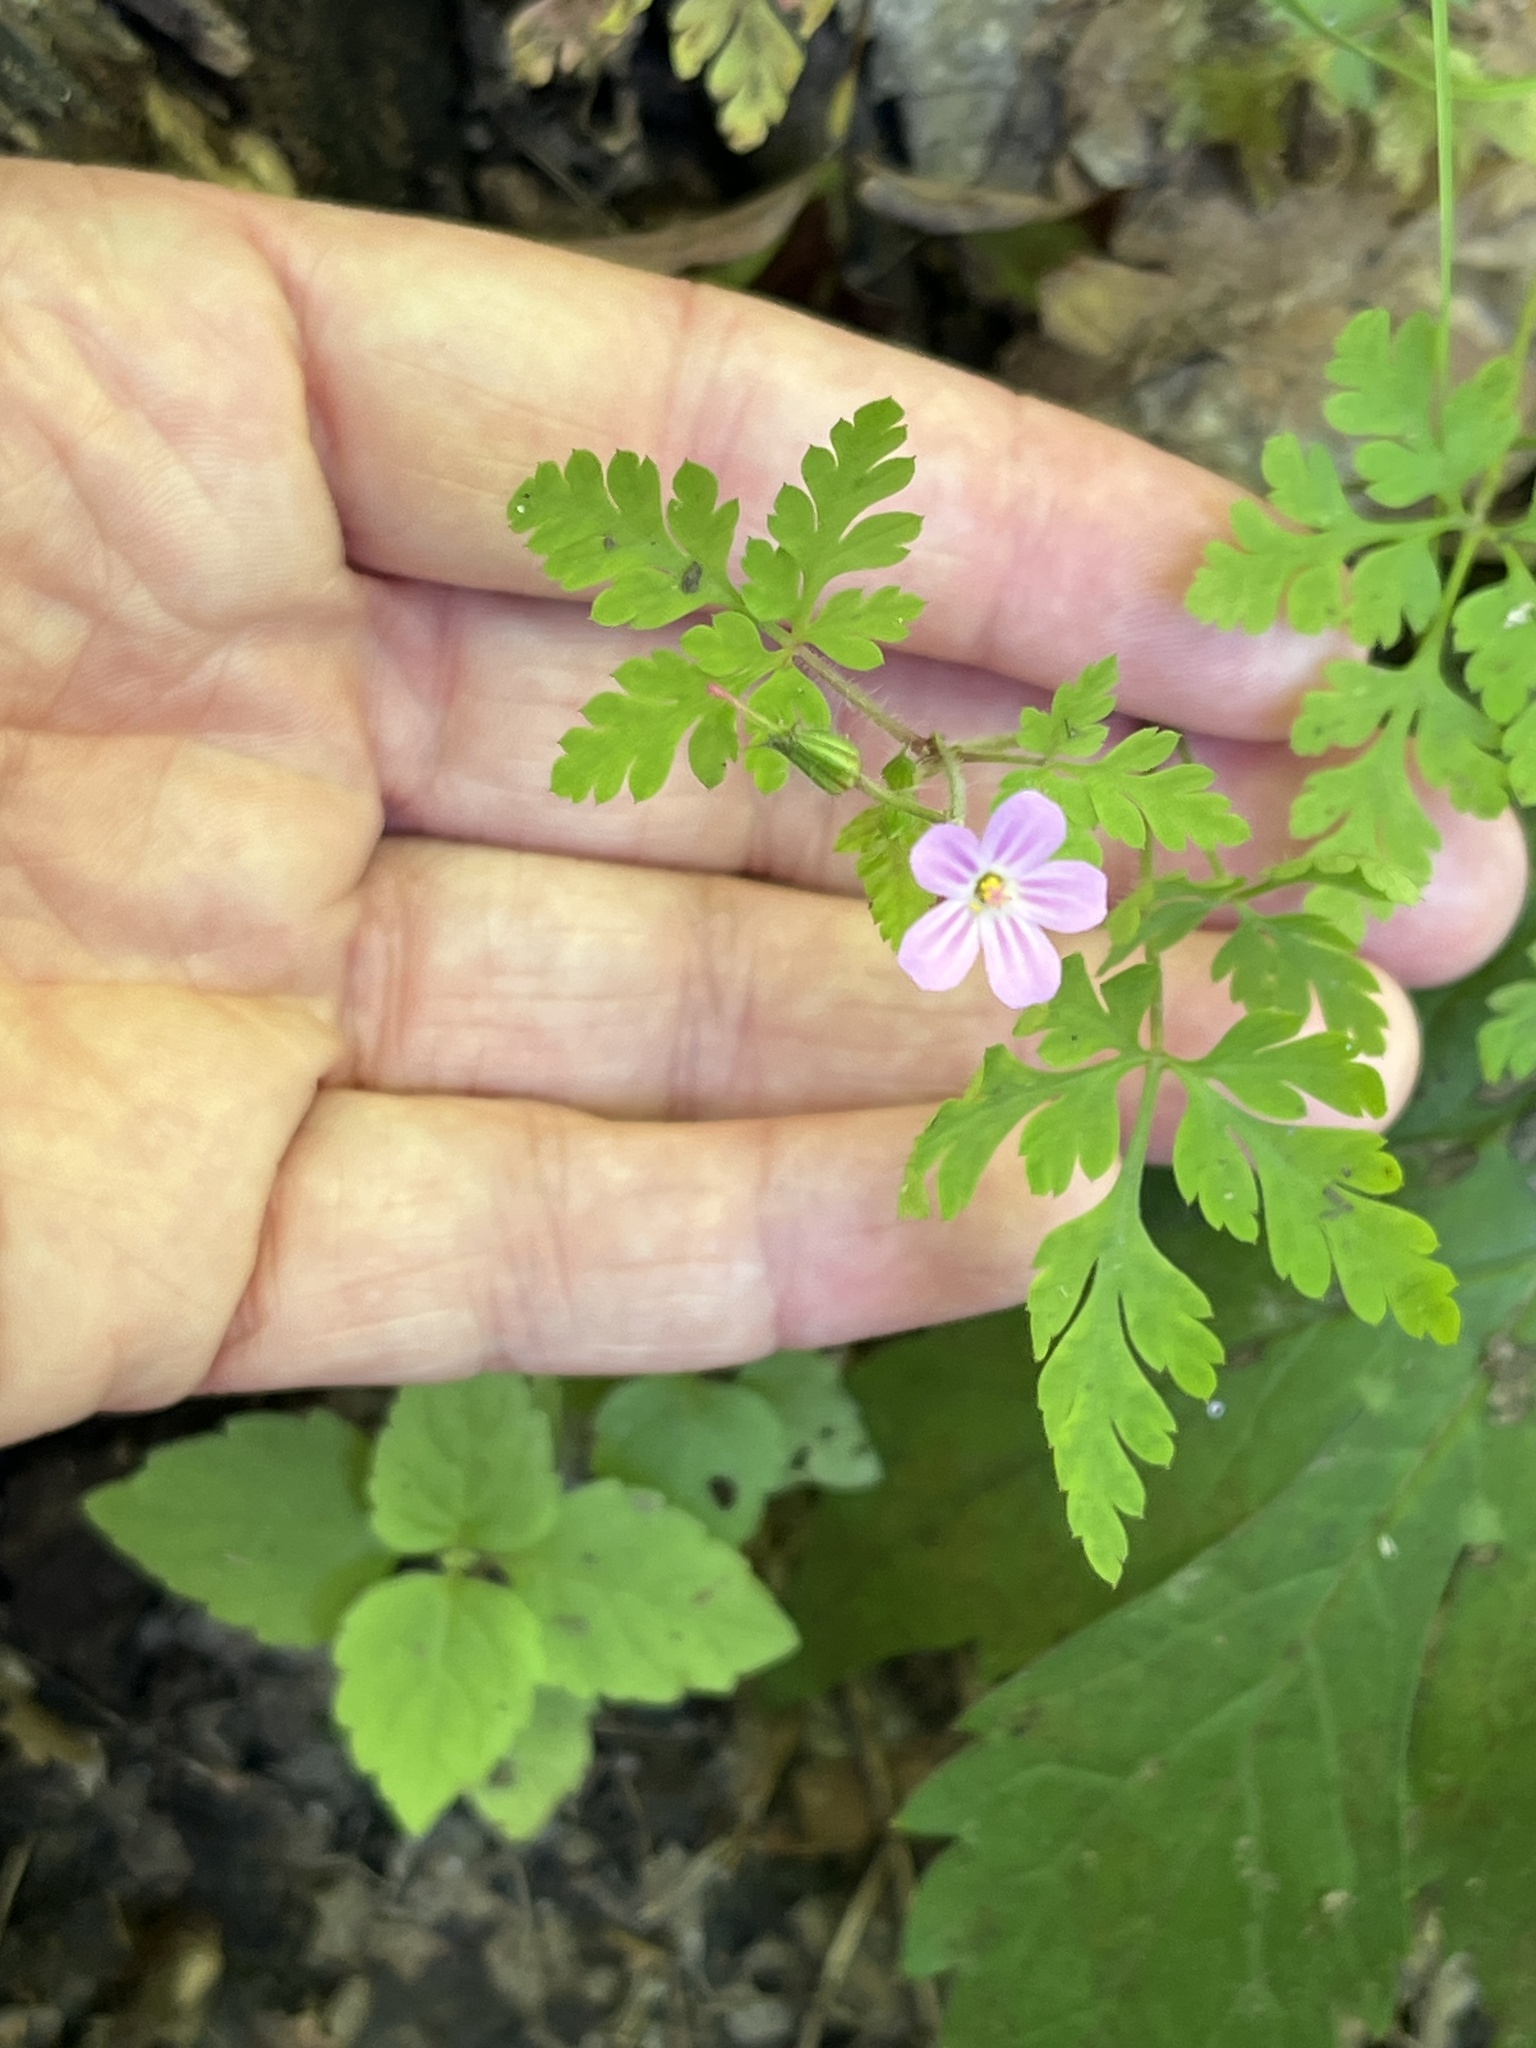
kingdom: Plantae
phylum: Tracheophyta
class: Magnoliopsida
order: Geraniales
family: Geraniaceae
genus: Geranium
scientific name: Geranium robertianum
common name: Herb-robert
